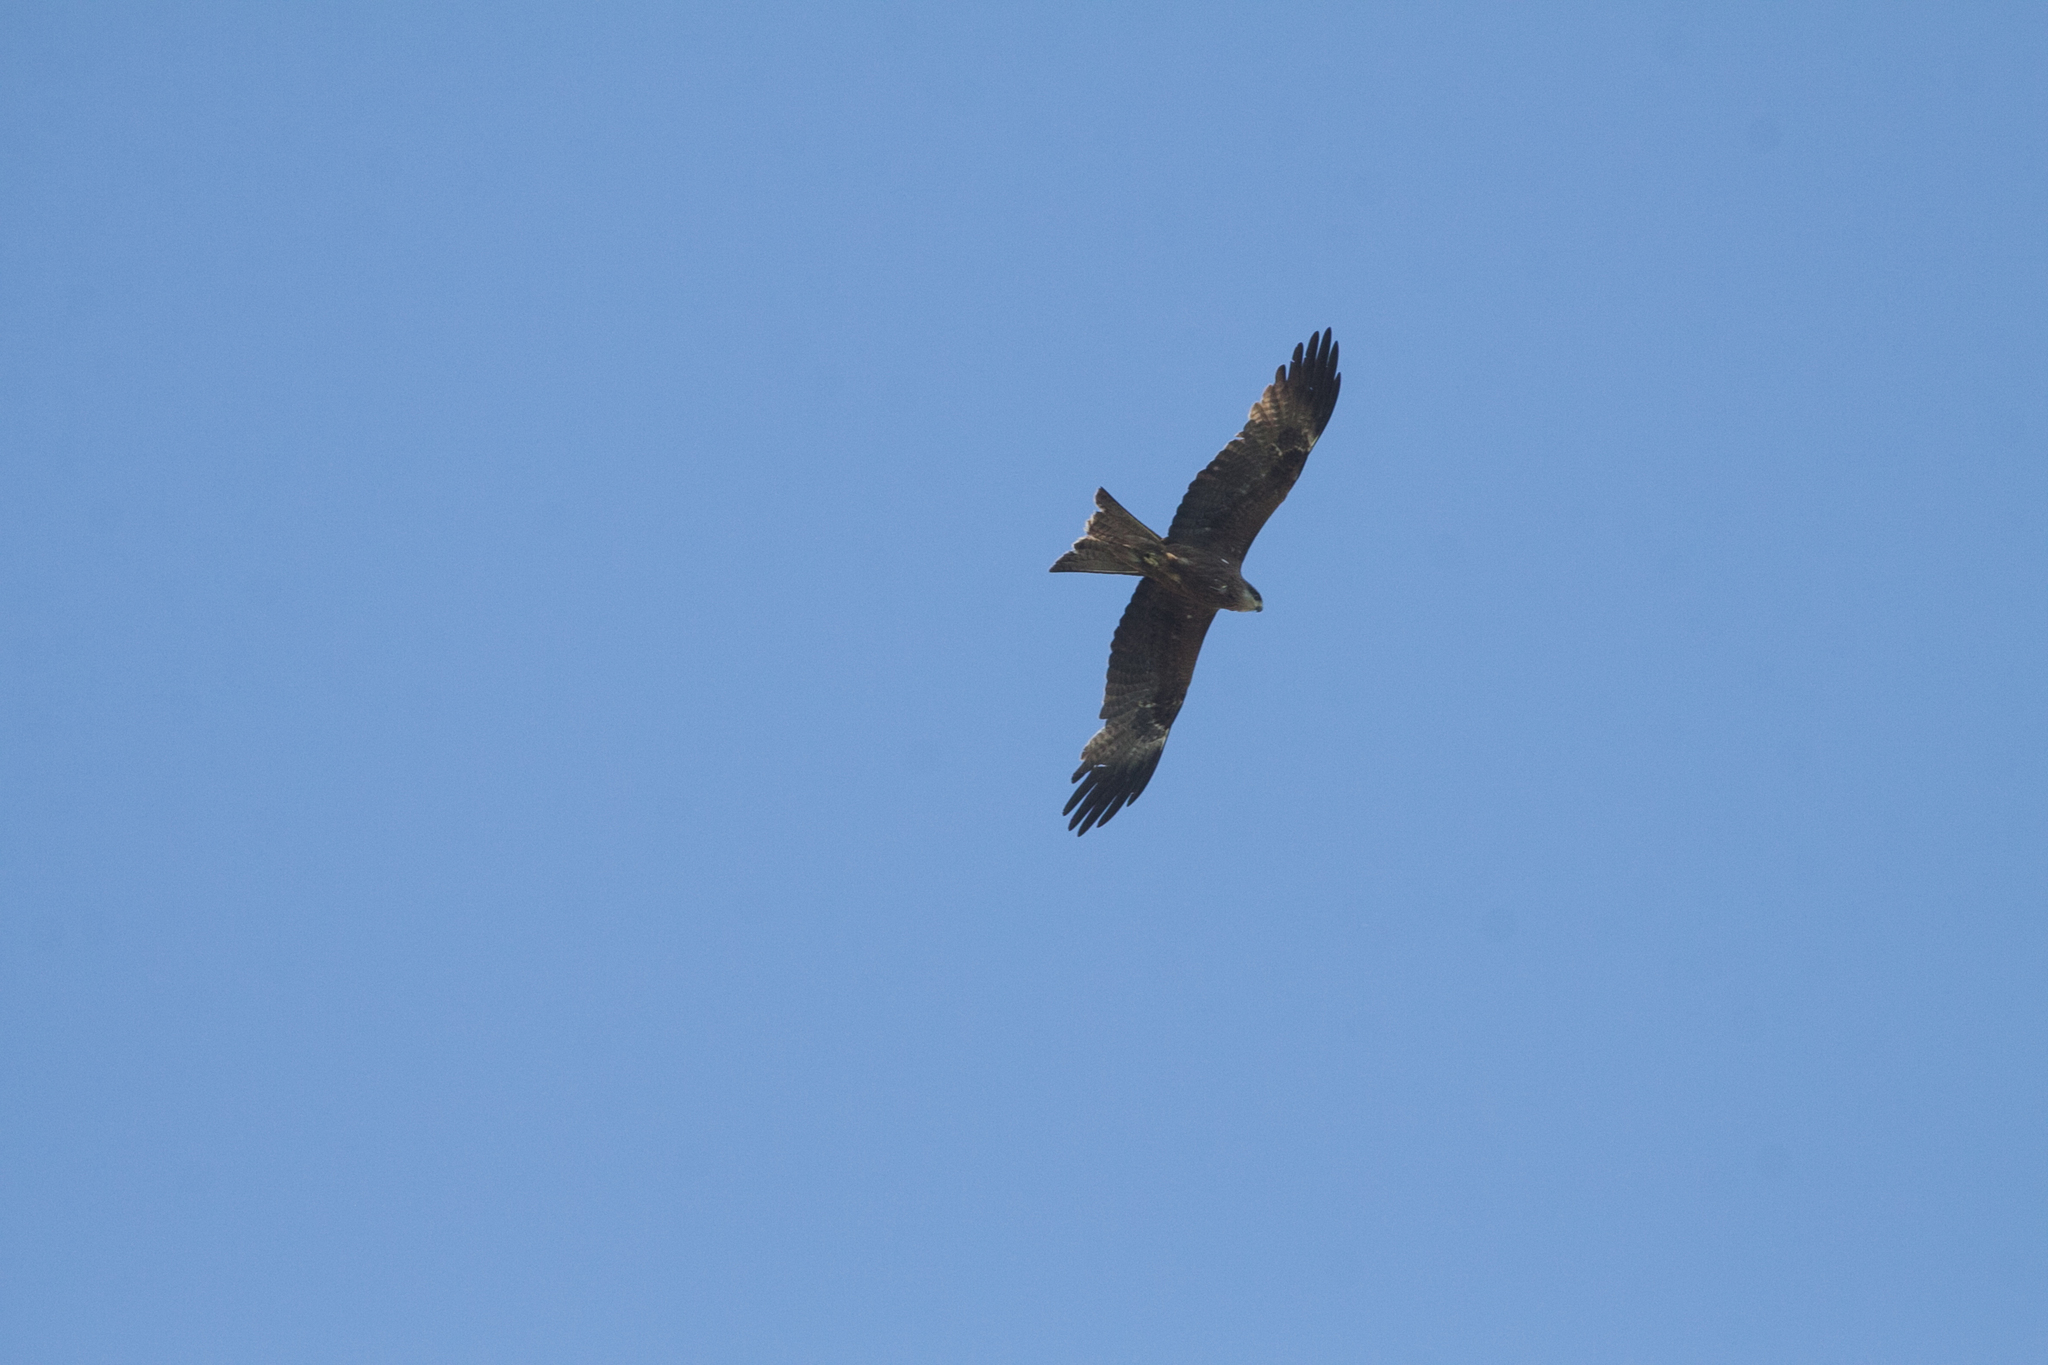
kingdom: Animalia
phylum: Chordata
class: Aves
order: Accipitriformes
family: Accipitridae
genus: Milvus
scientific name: Milvus migrans
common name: Black kite
